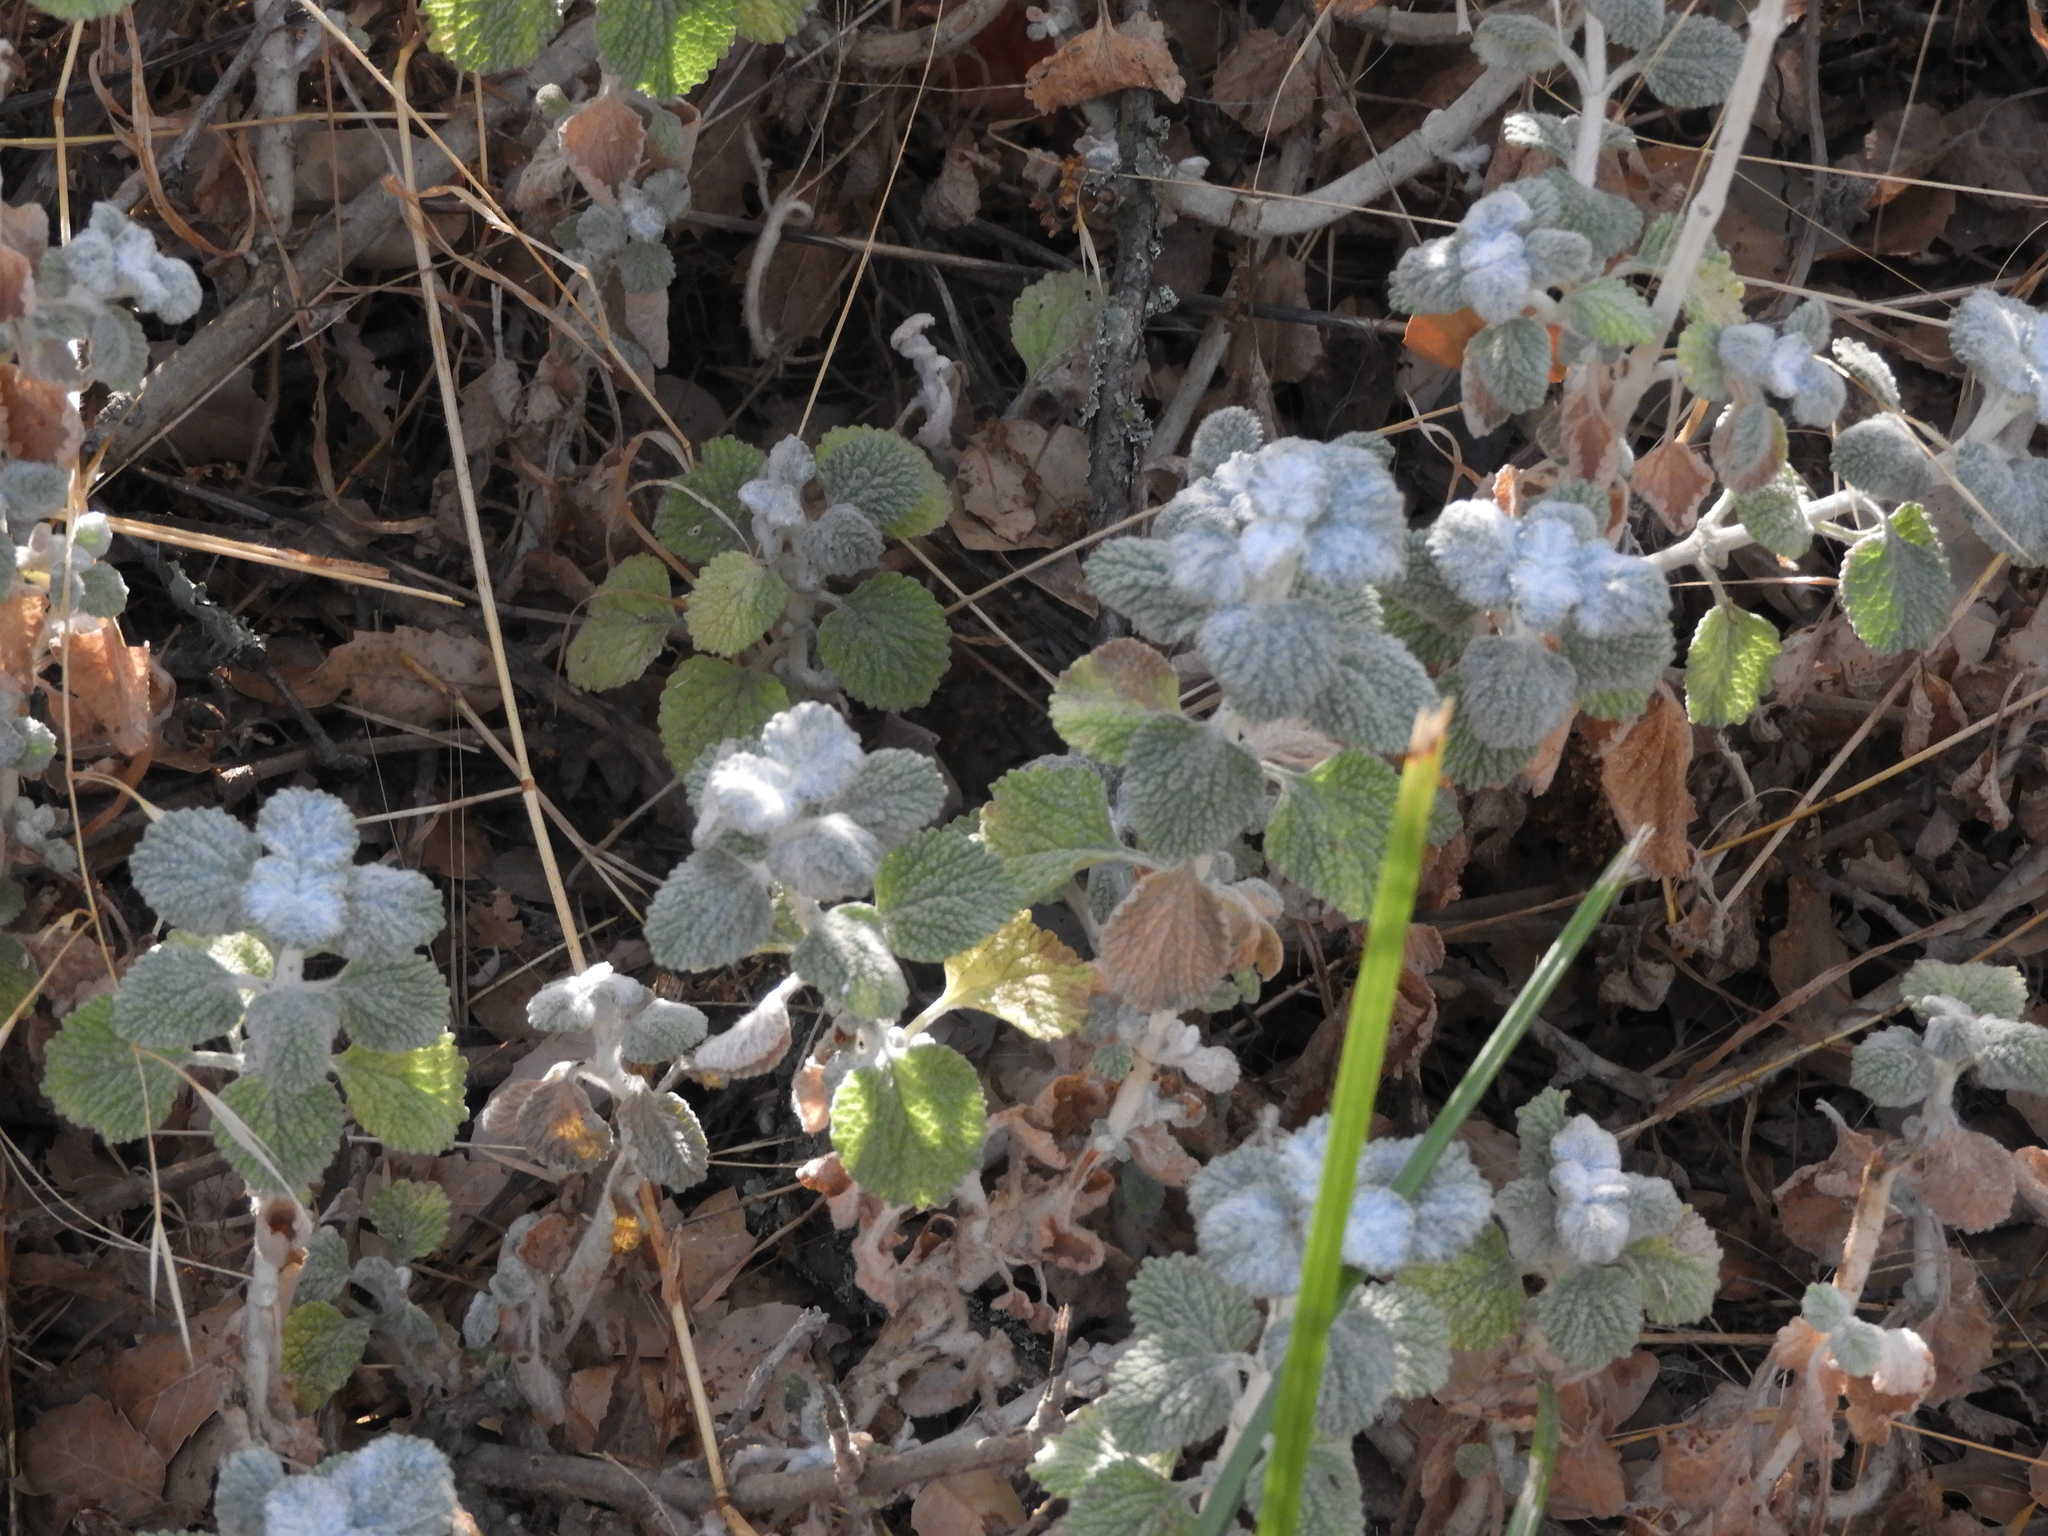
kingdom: Plantae
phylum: Tracheophyta
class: Magnoliopsida
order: Lamiales
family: Lamiaceae
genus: Marrubium
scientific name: Marrubium vulgare
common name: Horehound
